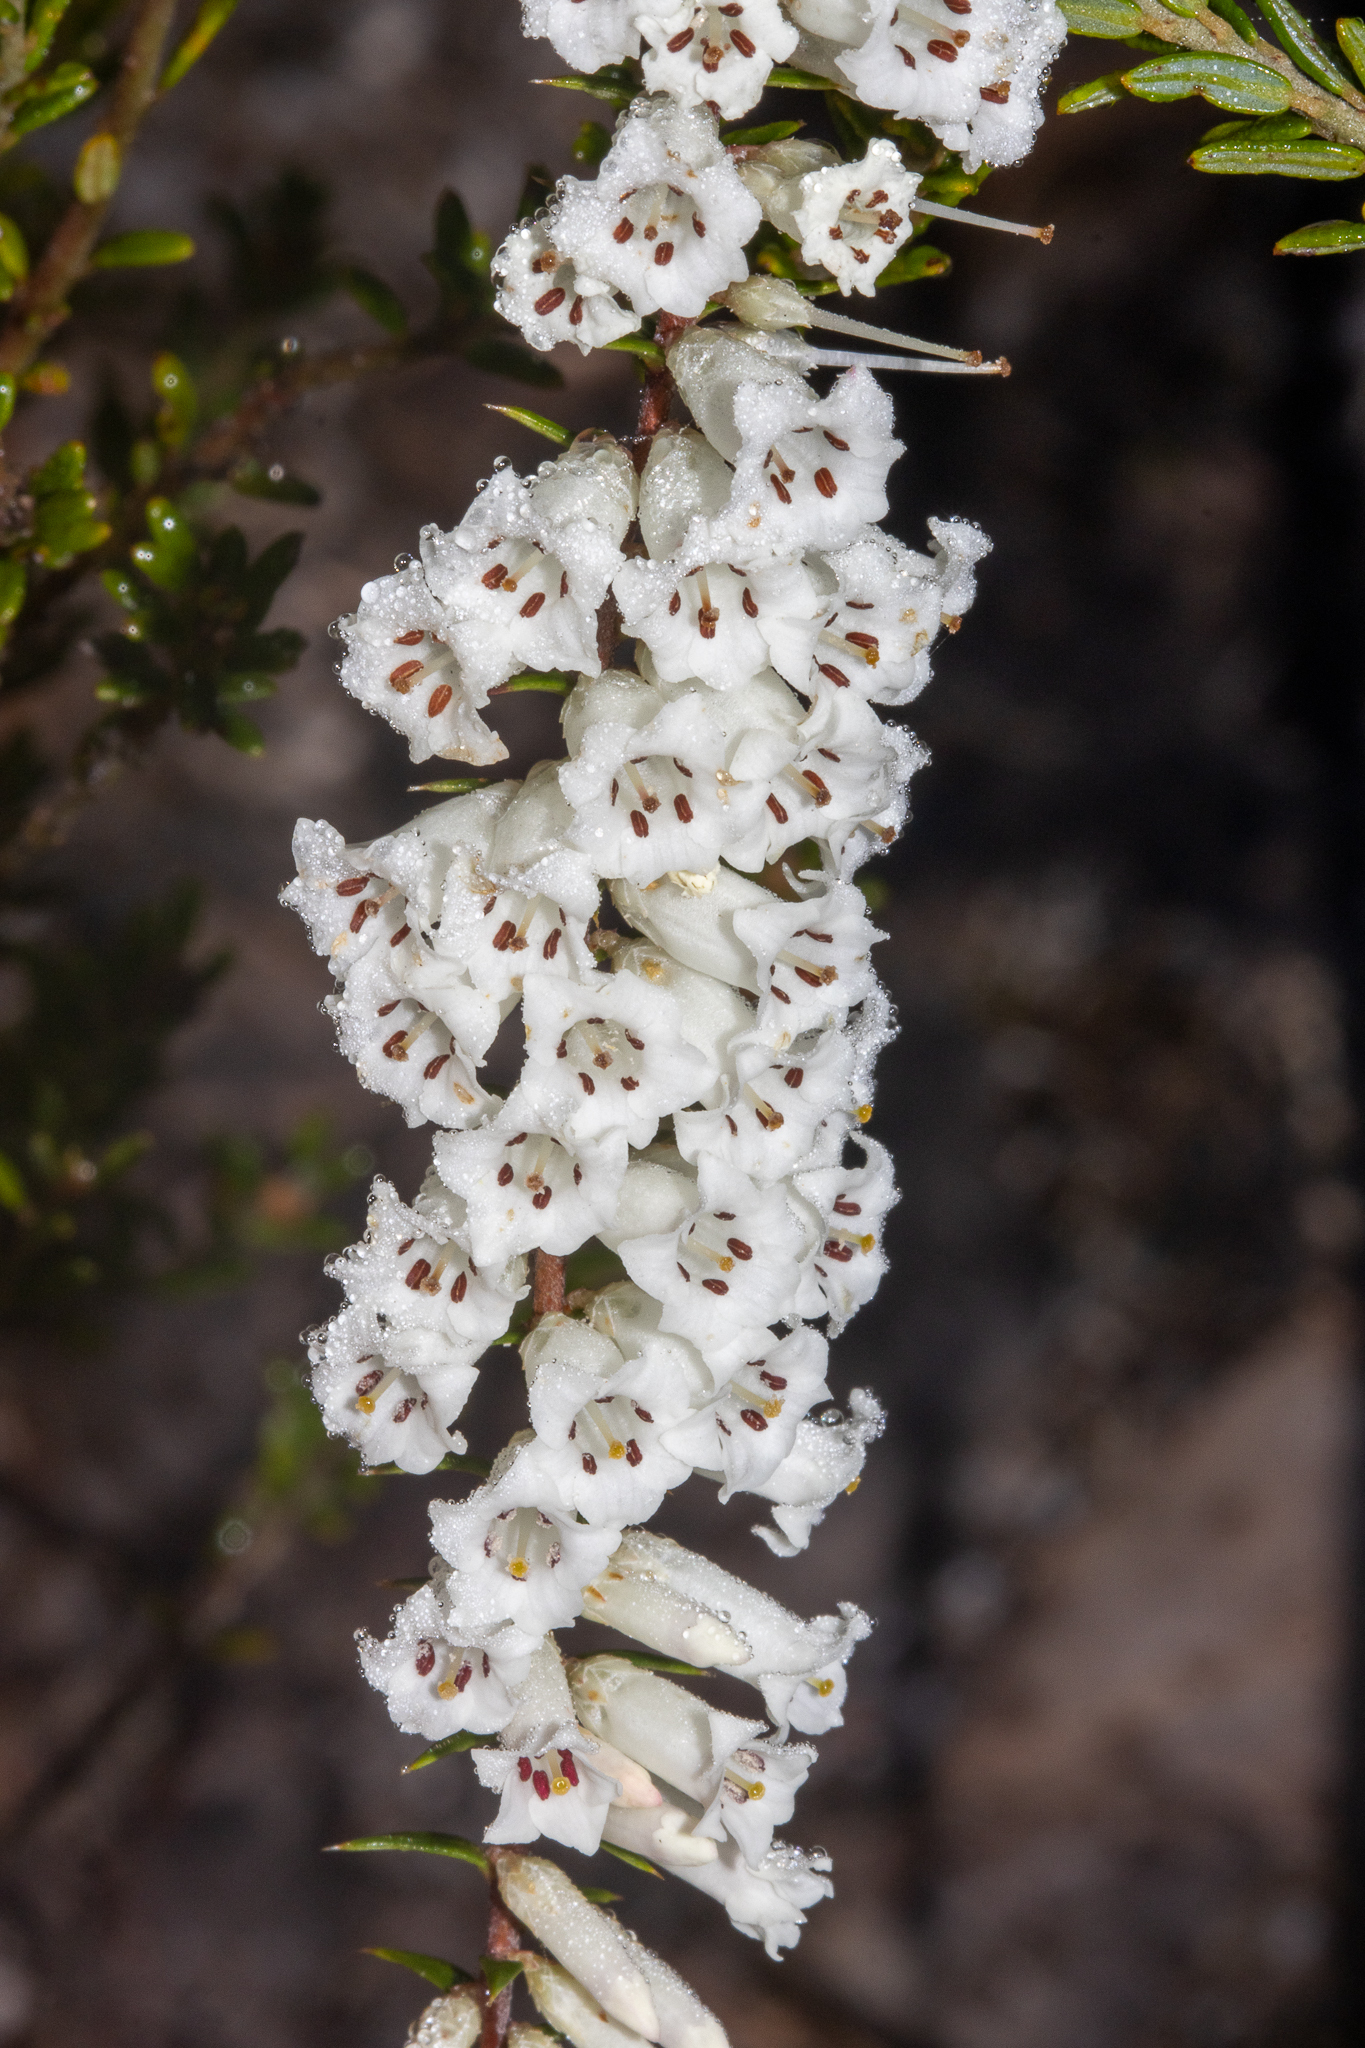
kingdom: Plantae
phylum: Tracheophyta
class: Magnoliopsida
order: Ericales
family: Ericaceae
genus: Epacris
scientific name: Epacris impressa
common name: Common-heath
